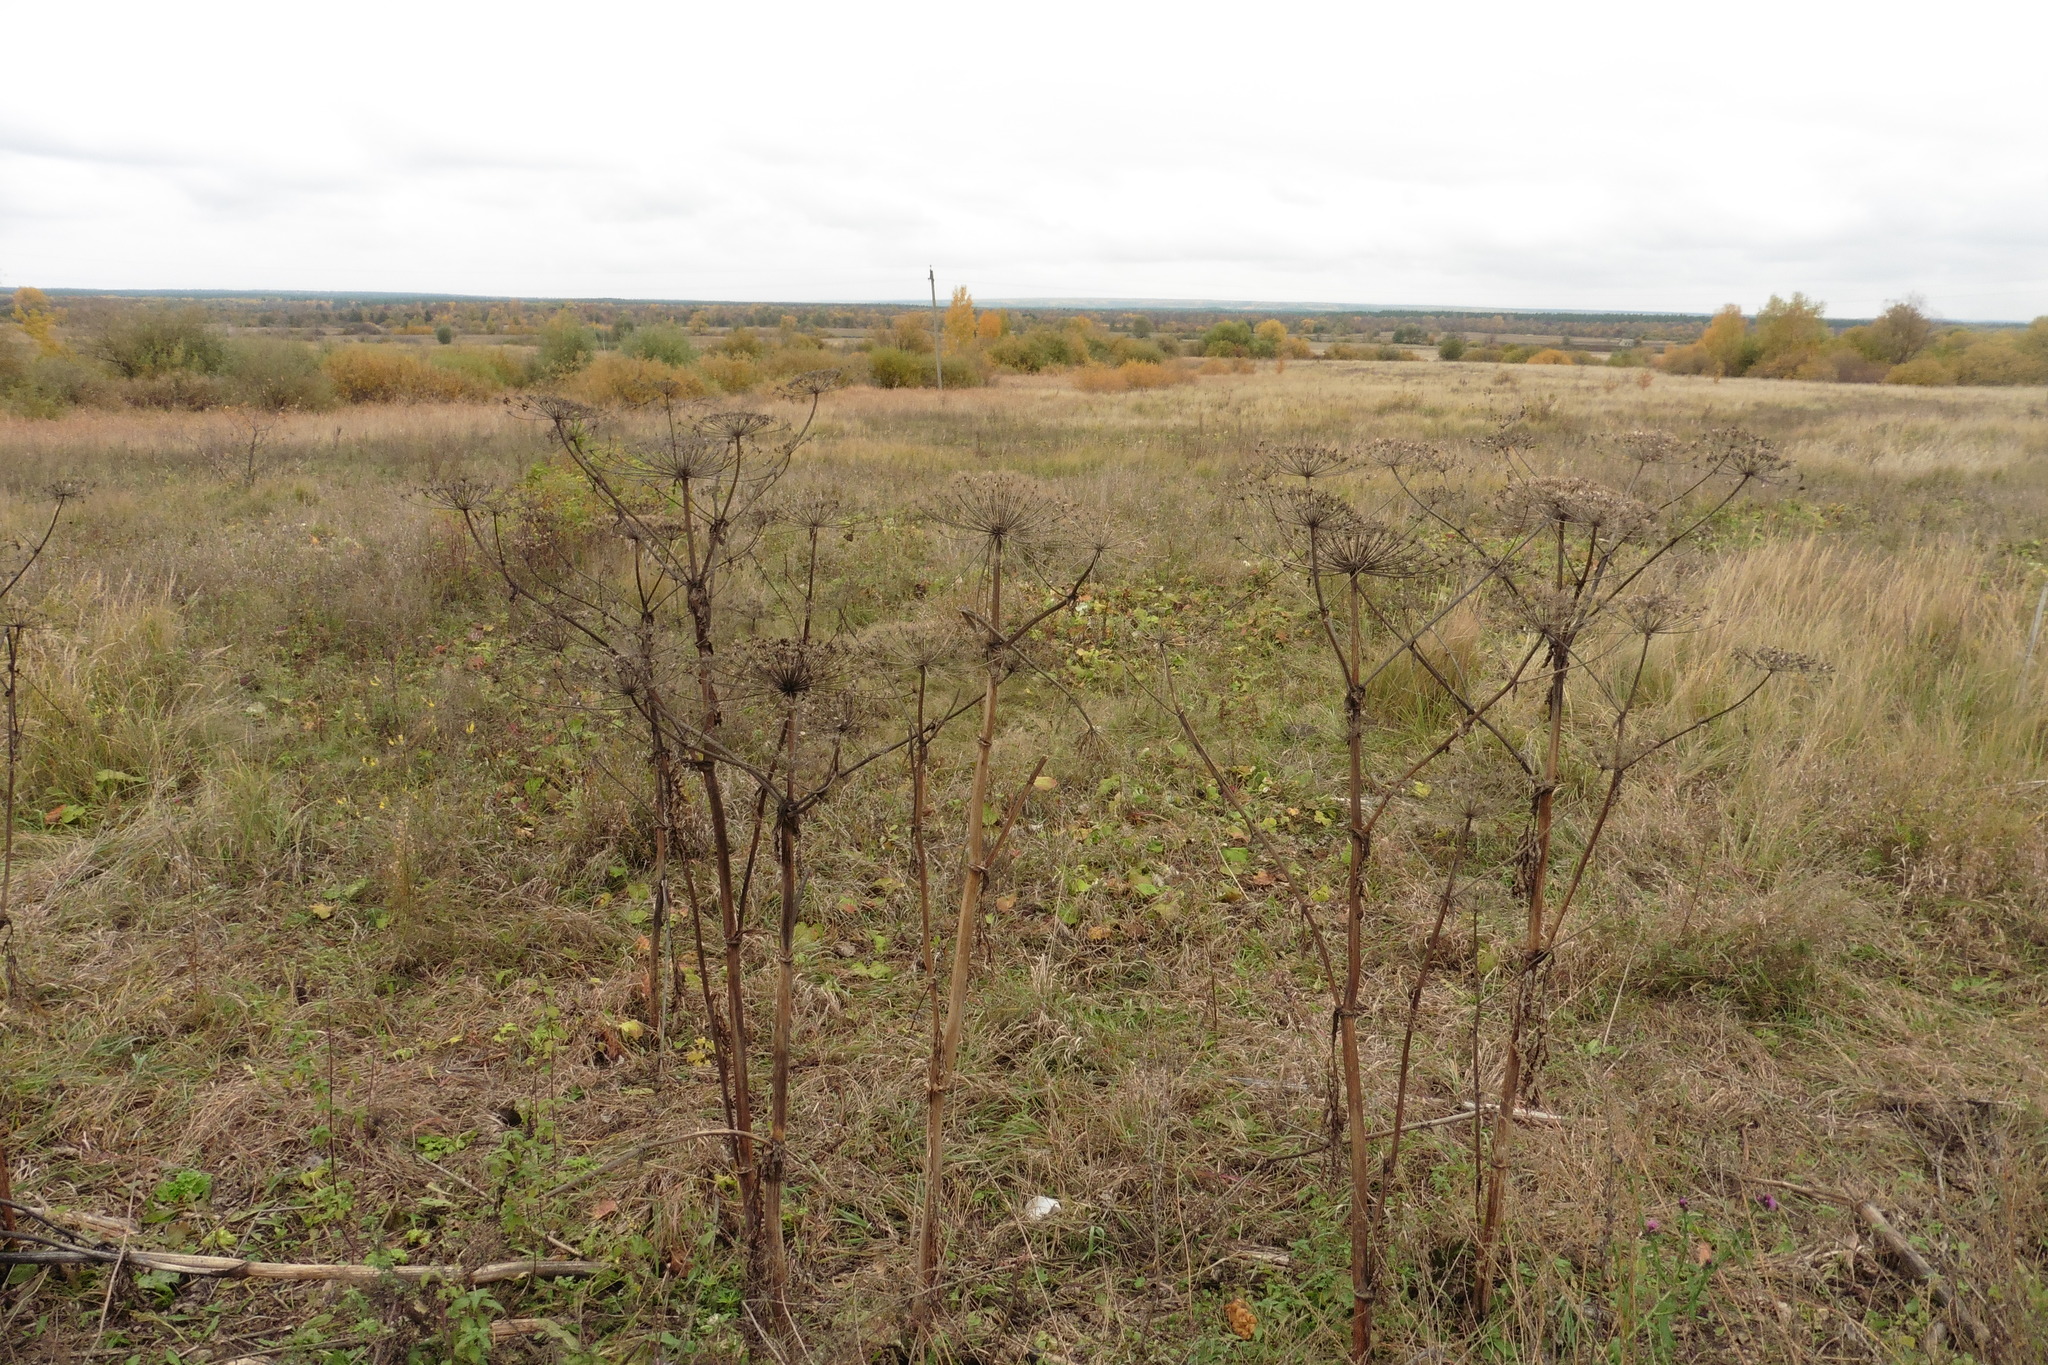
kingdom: Plantae
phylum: Tracheophyta
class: Magnoliopsida
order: Apiales
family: Apiaceae
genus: Heracleum
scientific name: Heracleum sosnowskyi
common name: Sosnowsky's hogweed
